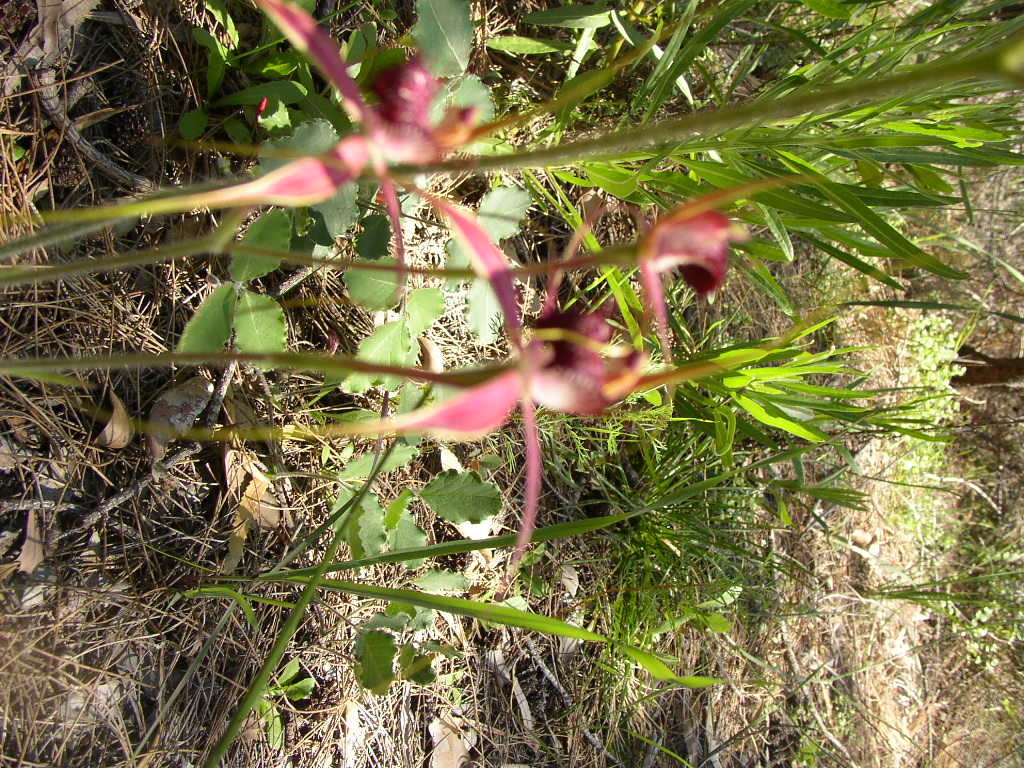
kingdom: Plantae
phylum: Tracheophyta
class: Liliopsida
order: Asparagales
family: Orchidaceae
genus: Caladenia
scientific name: Caladenia arenicola
